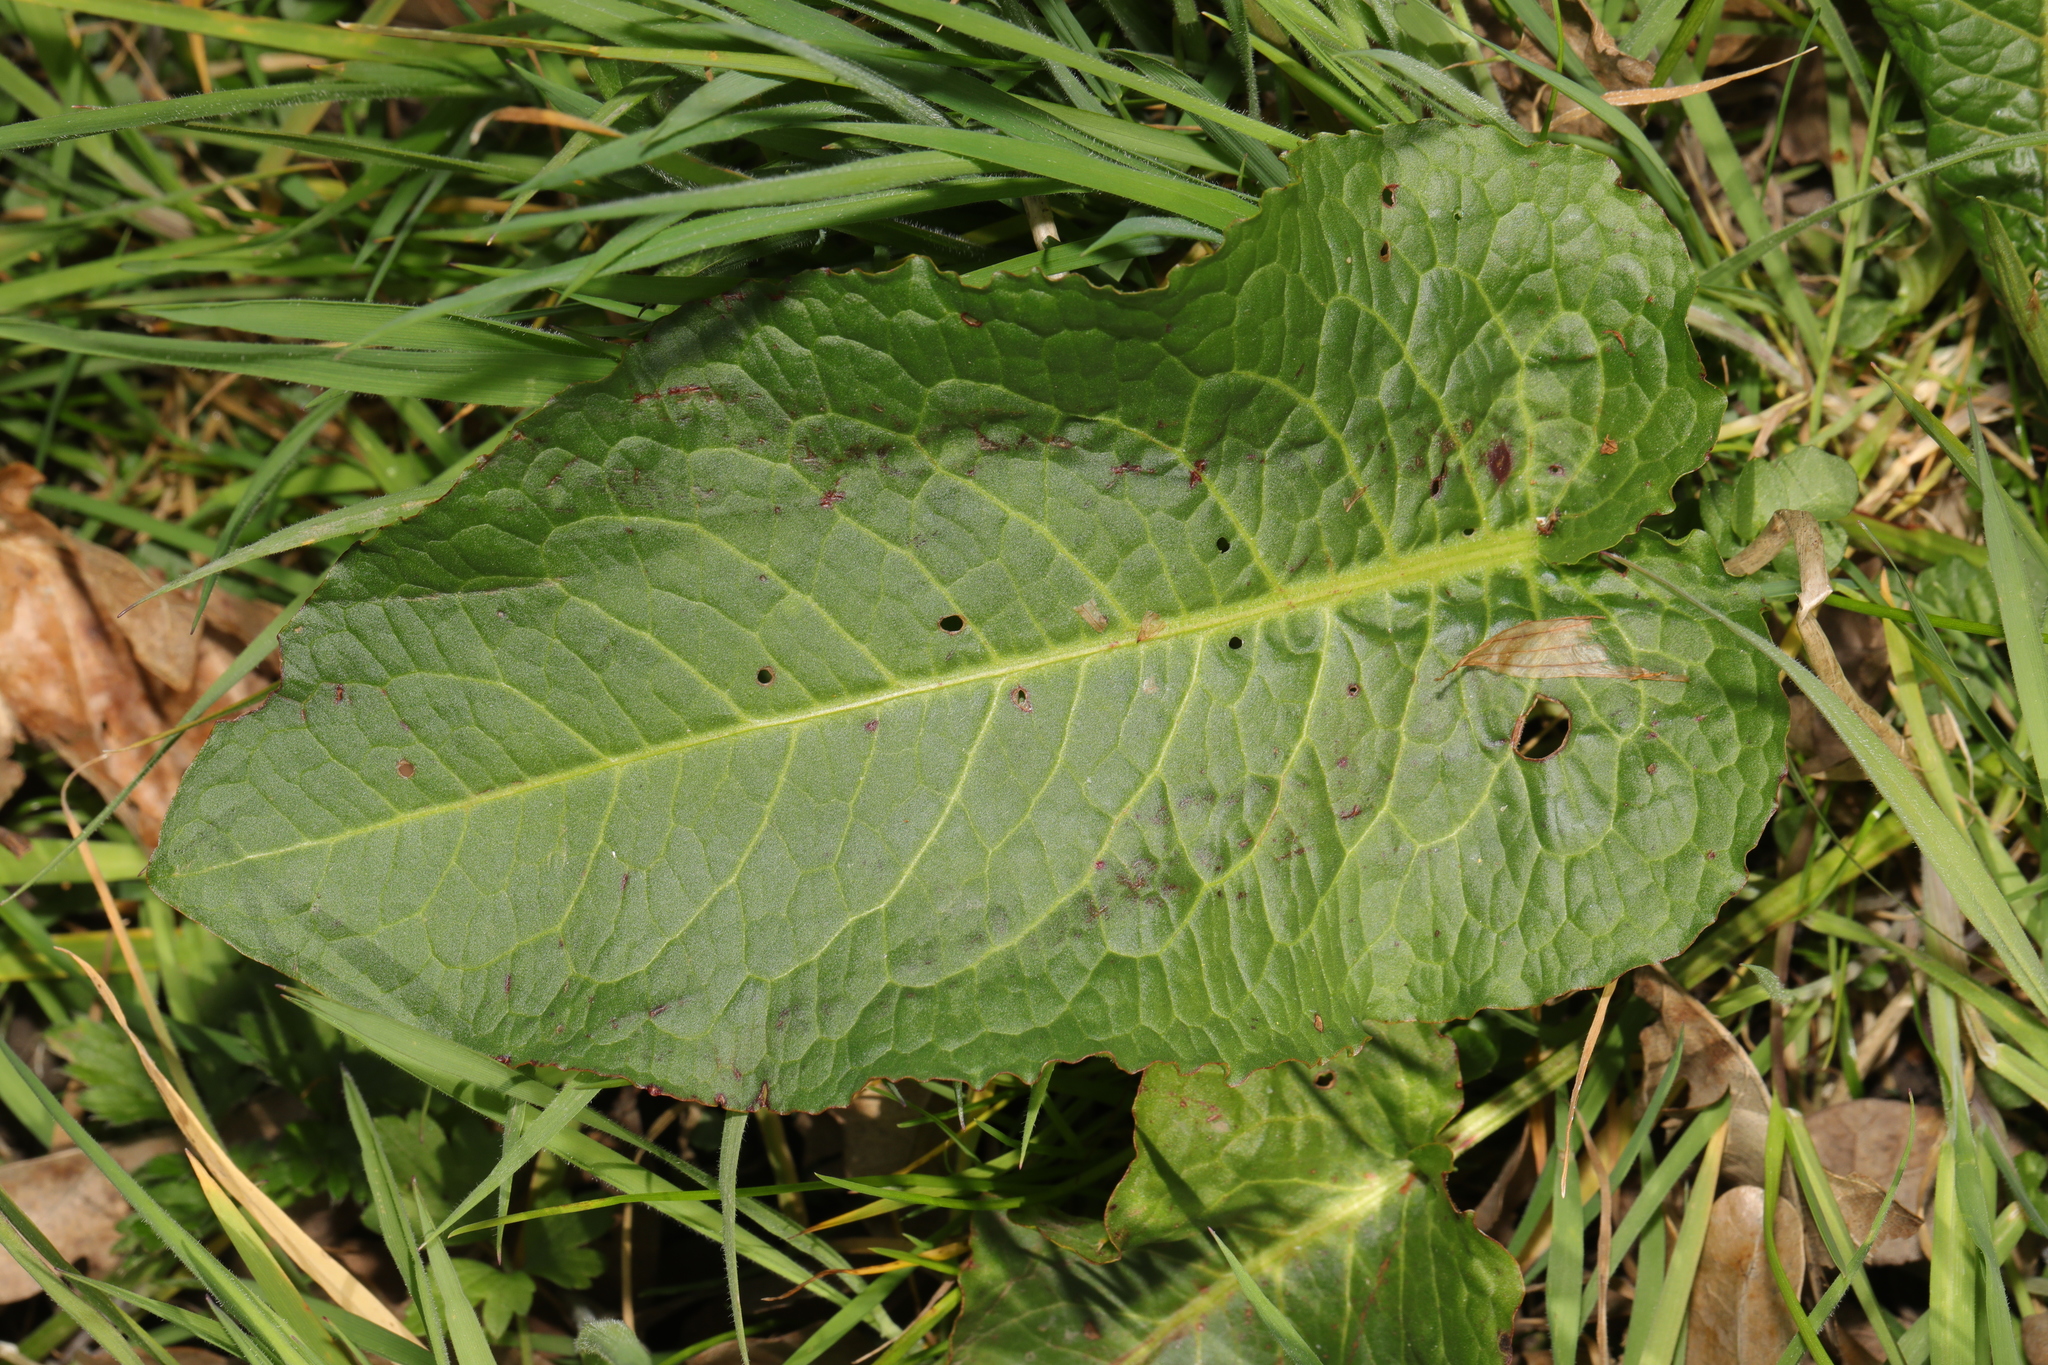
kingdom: Plantae
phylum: Tracheophyta
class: Magnoliopsida
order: Caryophyllales
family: Polygonaceae
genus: Rumex
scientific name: Rumex obtusifolius
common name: Bitter dock
